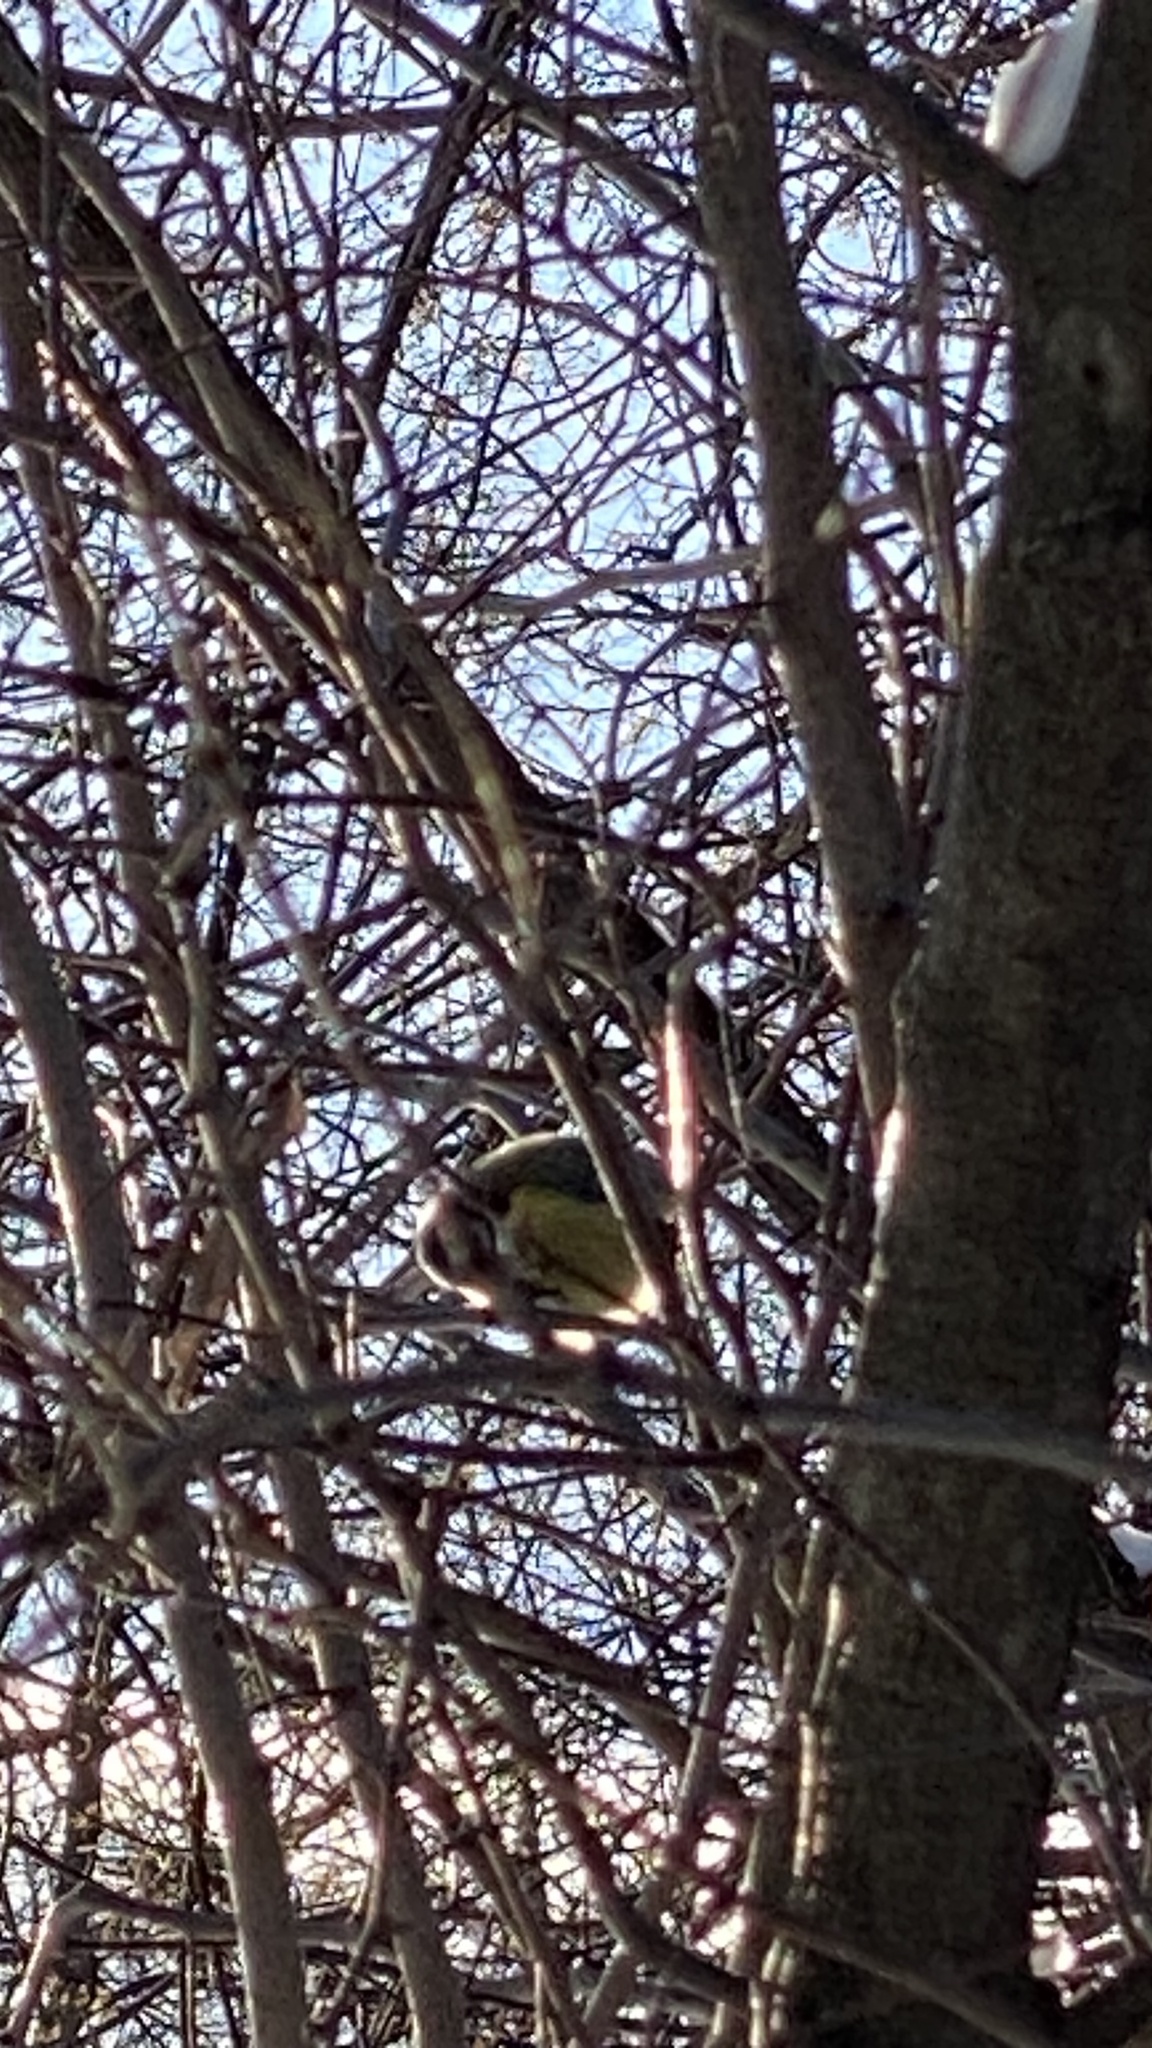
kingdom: Animalia
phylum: Chordata
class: Aves
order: Passeriformes
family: Paridae
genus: Cyanistes
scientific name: Cyanistes caeruleus
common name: Eurasian blue tit
